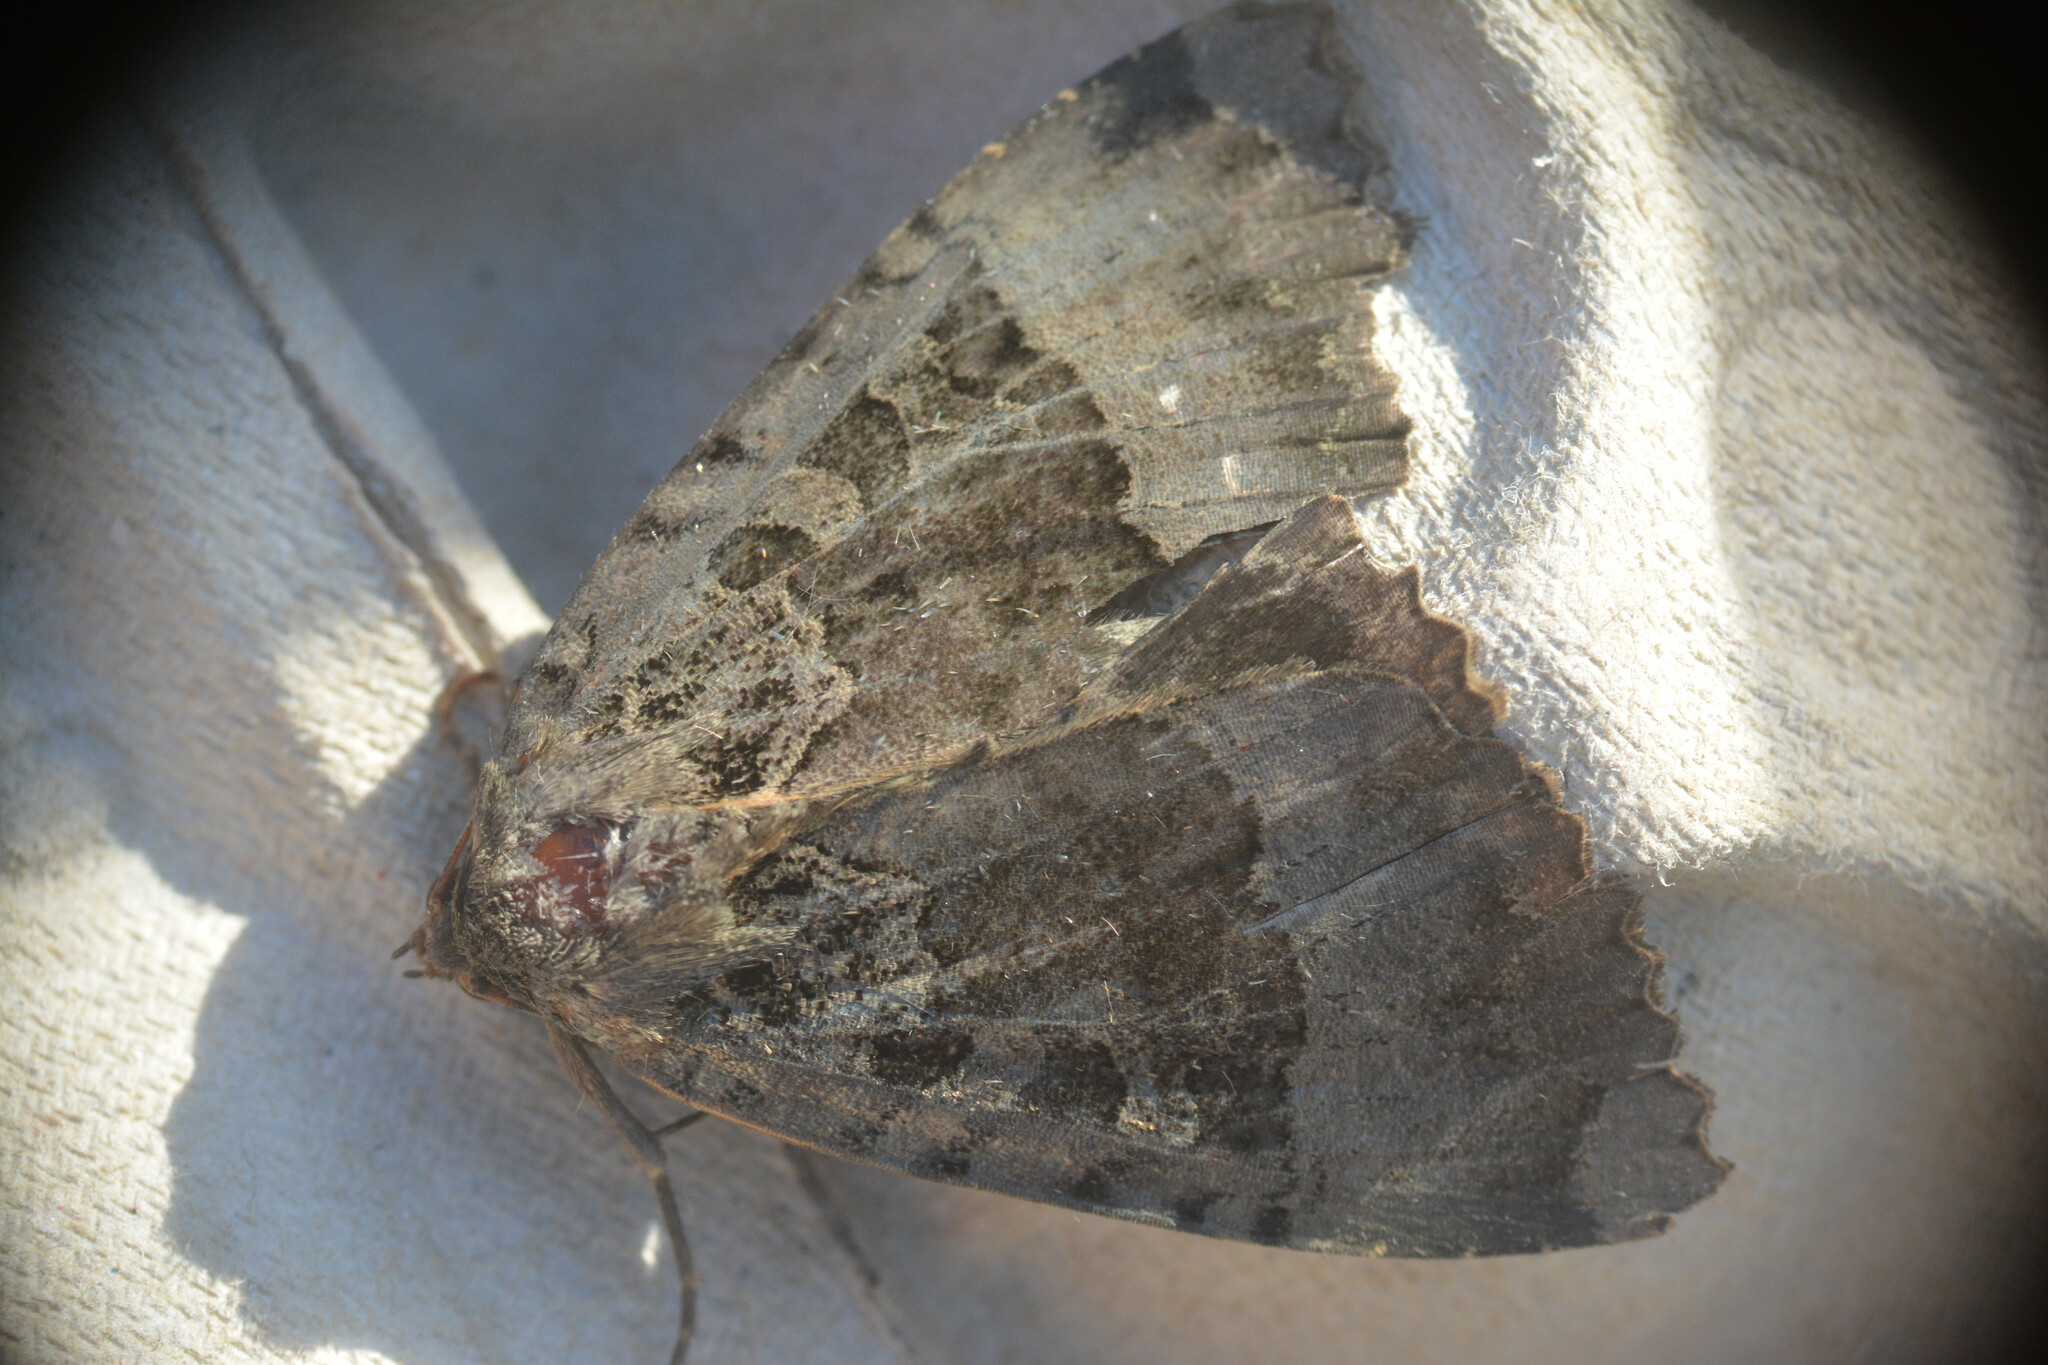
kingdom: Animalia
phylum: Arthropoda
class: Insecta
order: Lepidoptera
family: Noctuidae
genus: Mormo
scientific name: Mormo maura
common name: Old lady
